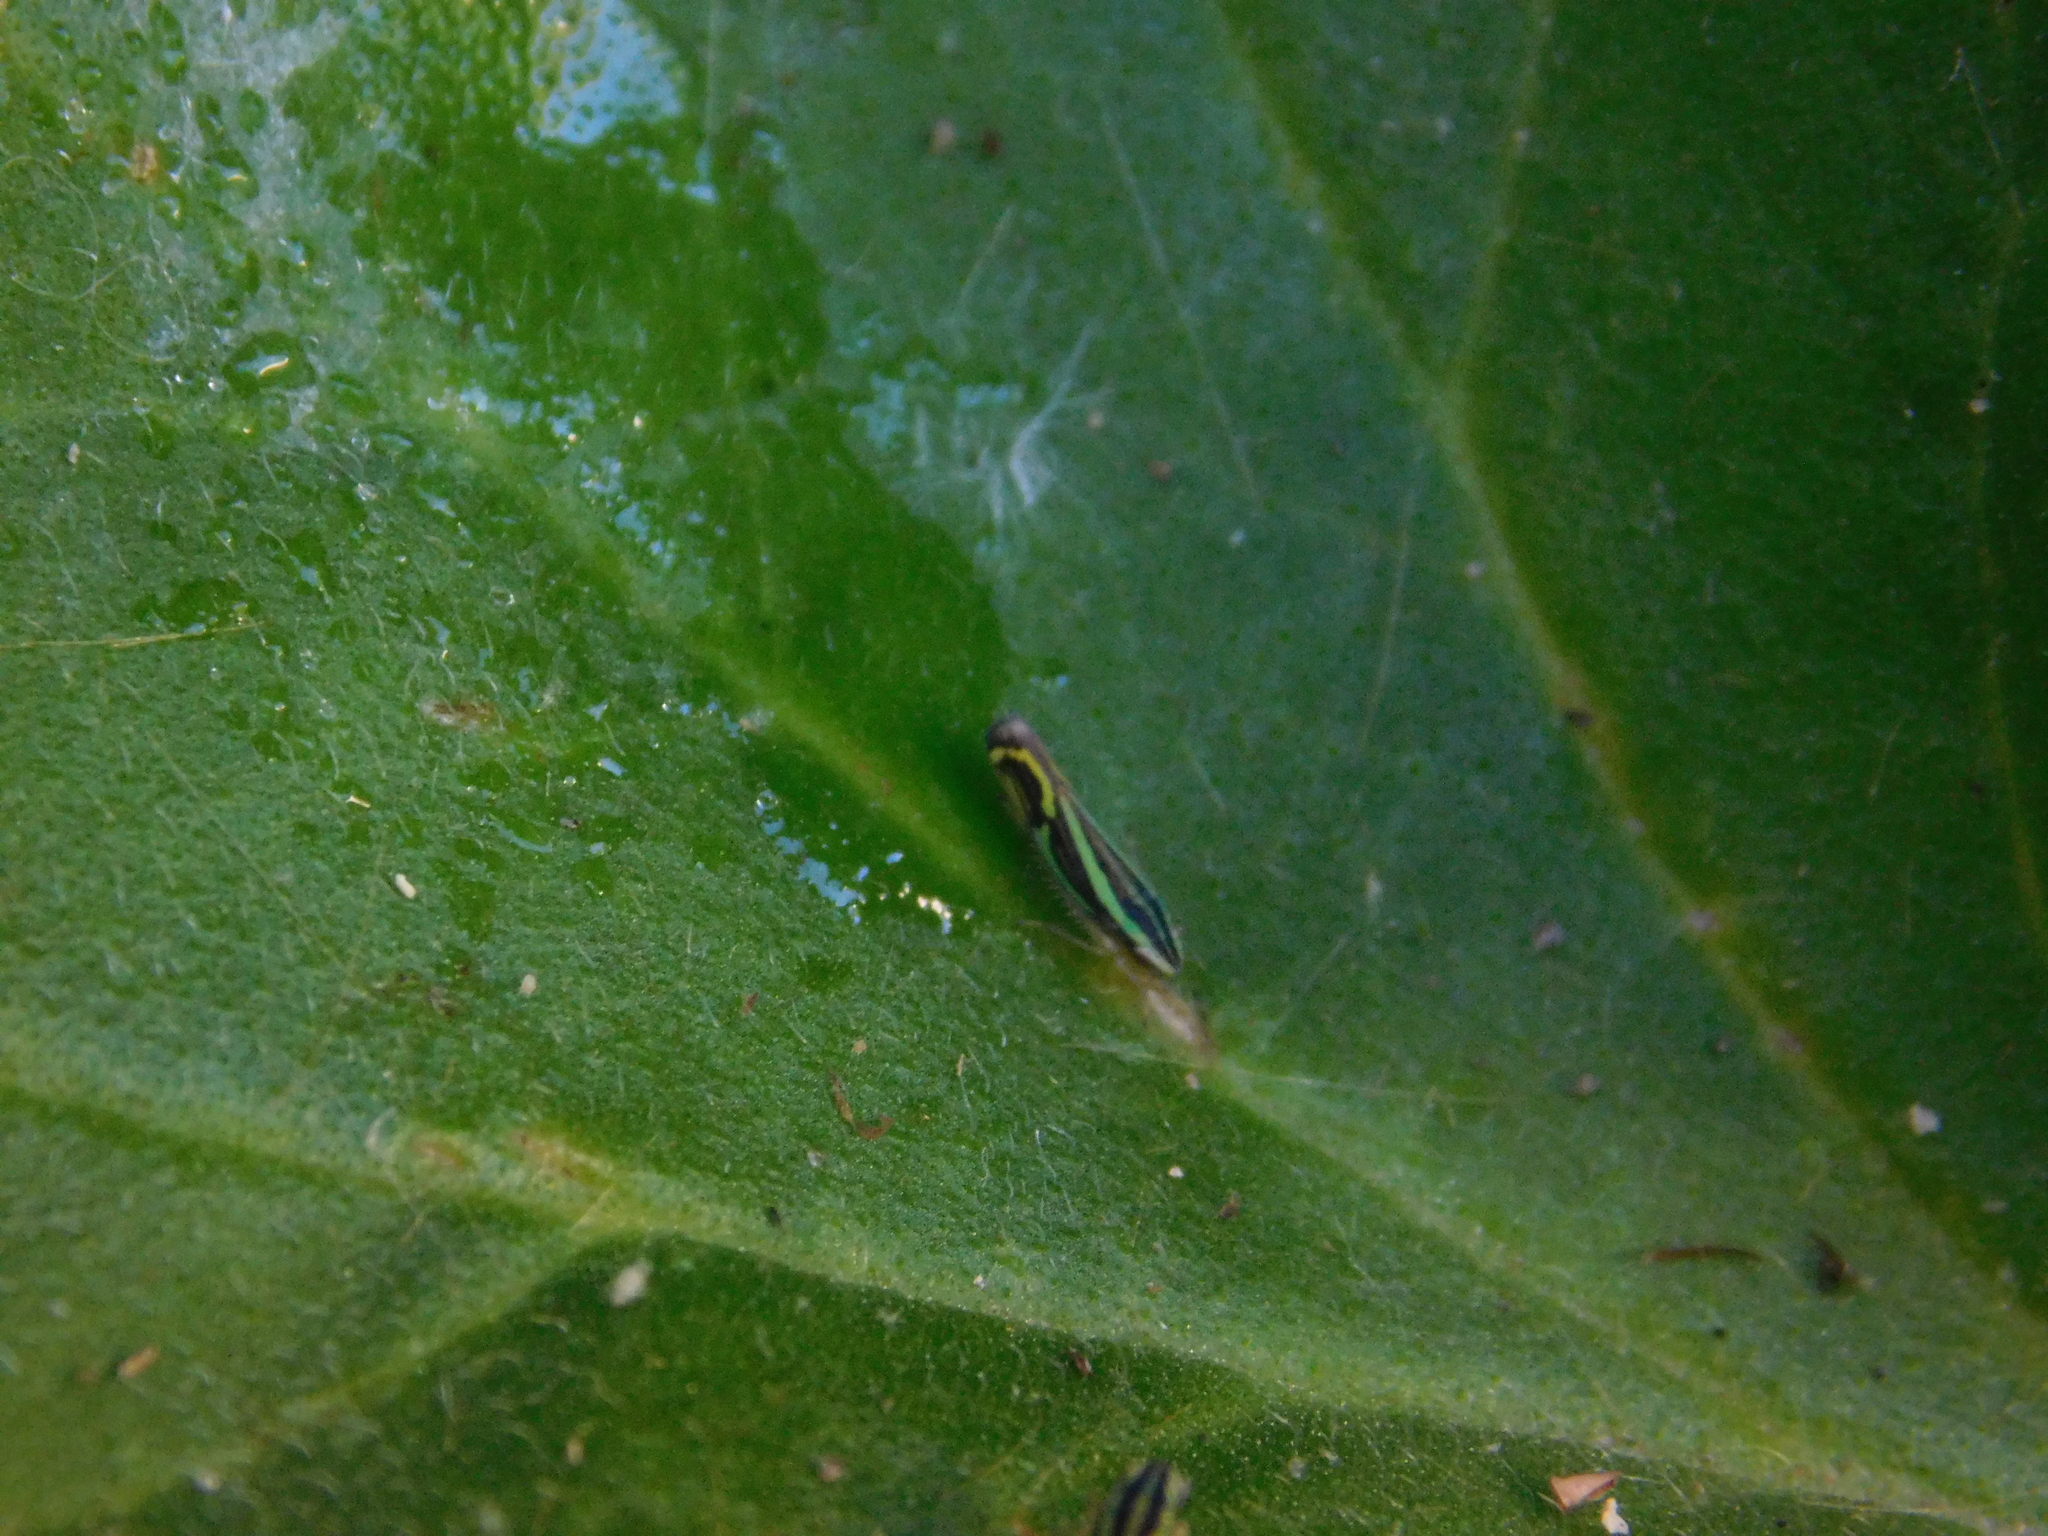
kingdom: Animalia
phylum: Arthropoda
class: Insecta
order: Hemiptera
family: Cicadellidae
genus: Sibovia
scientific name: Sibovia sagata
